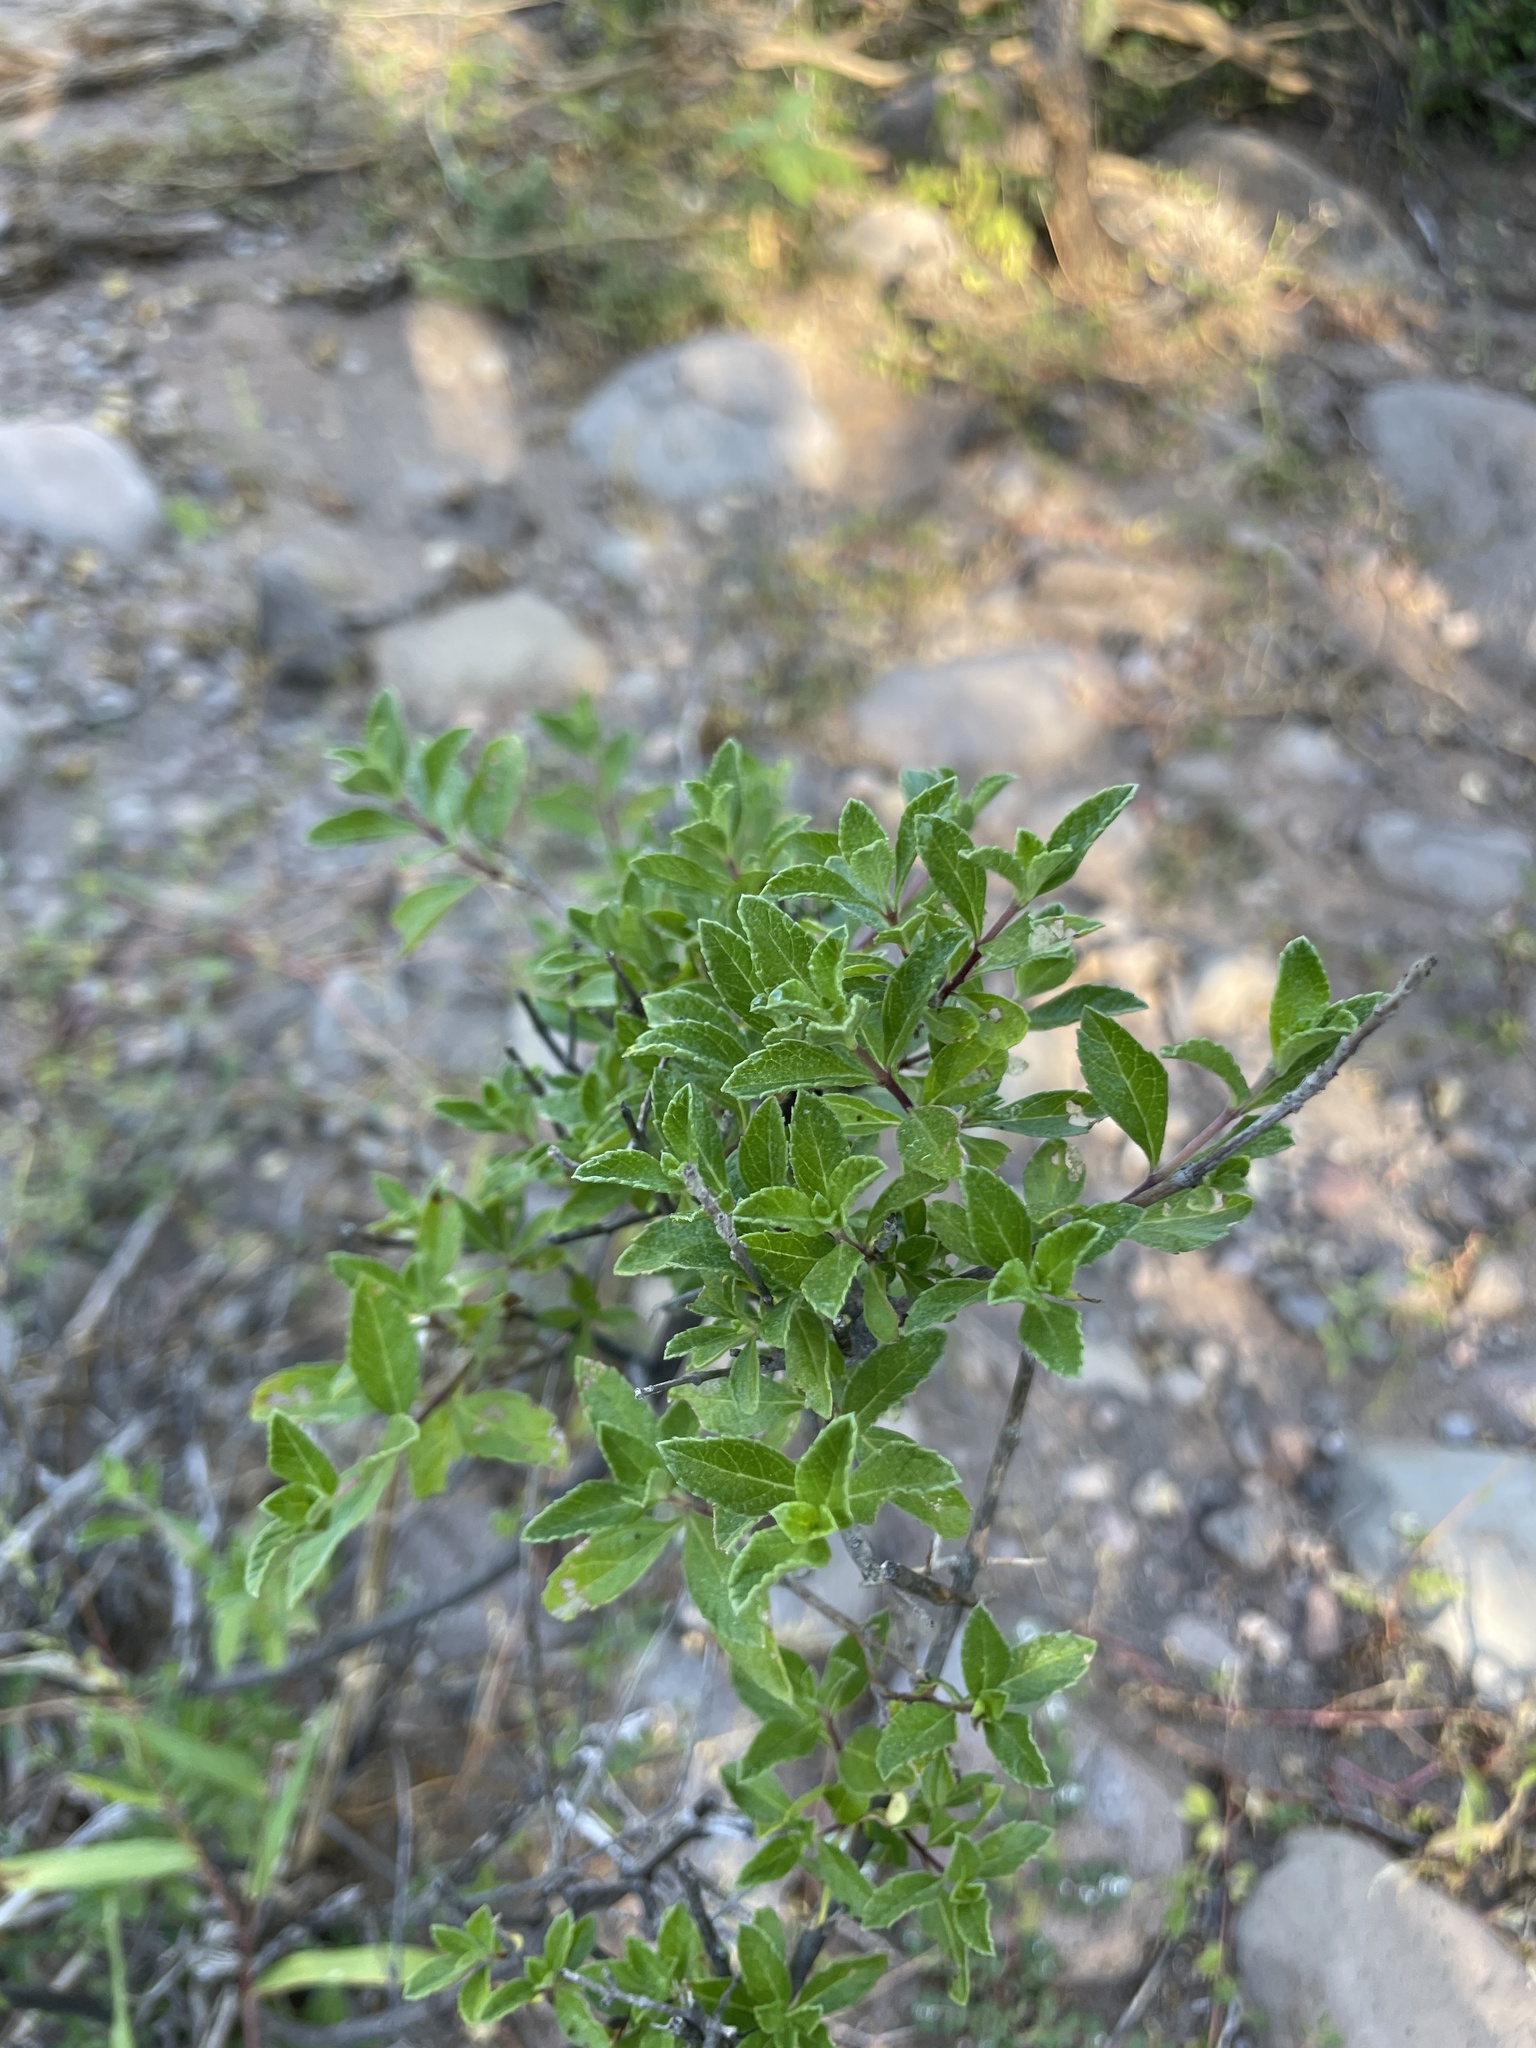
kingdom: Plantae
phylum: Tracheophyta
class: Magnoliopsida
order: Lamiales
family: Verbenaceae
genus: Lippia
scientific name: Lippia alba
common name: Bushy matgrass
